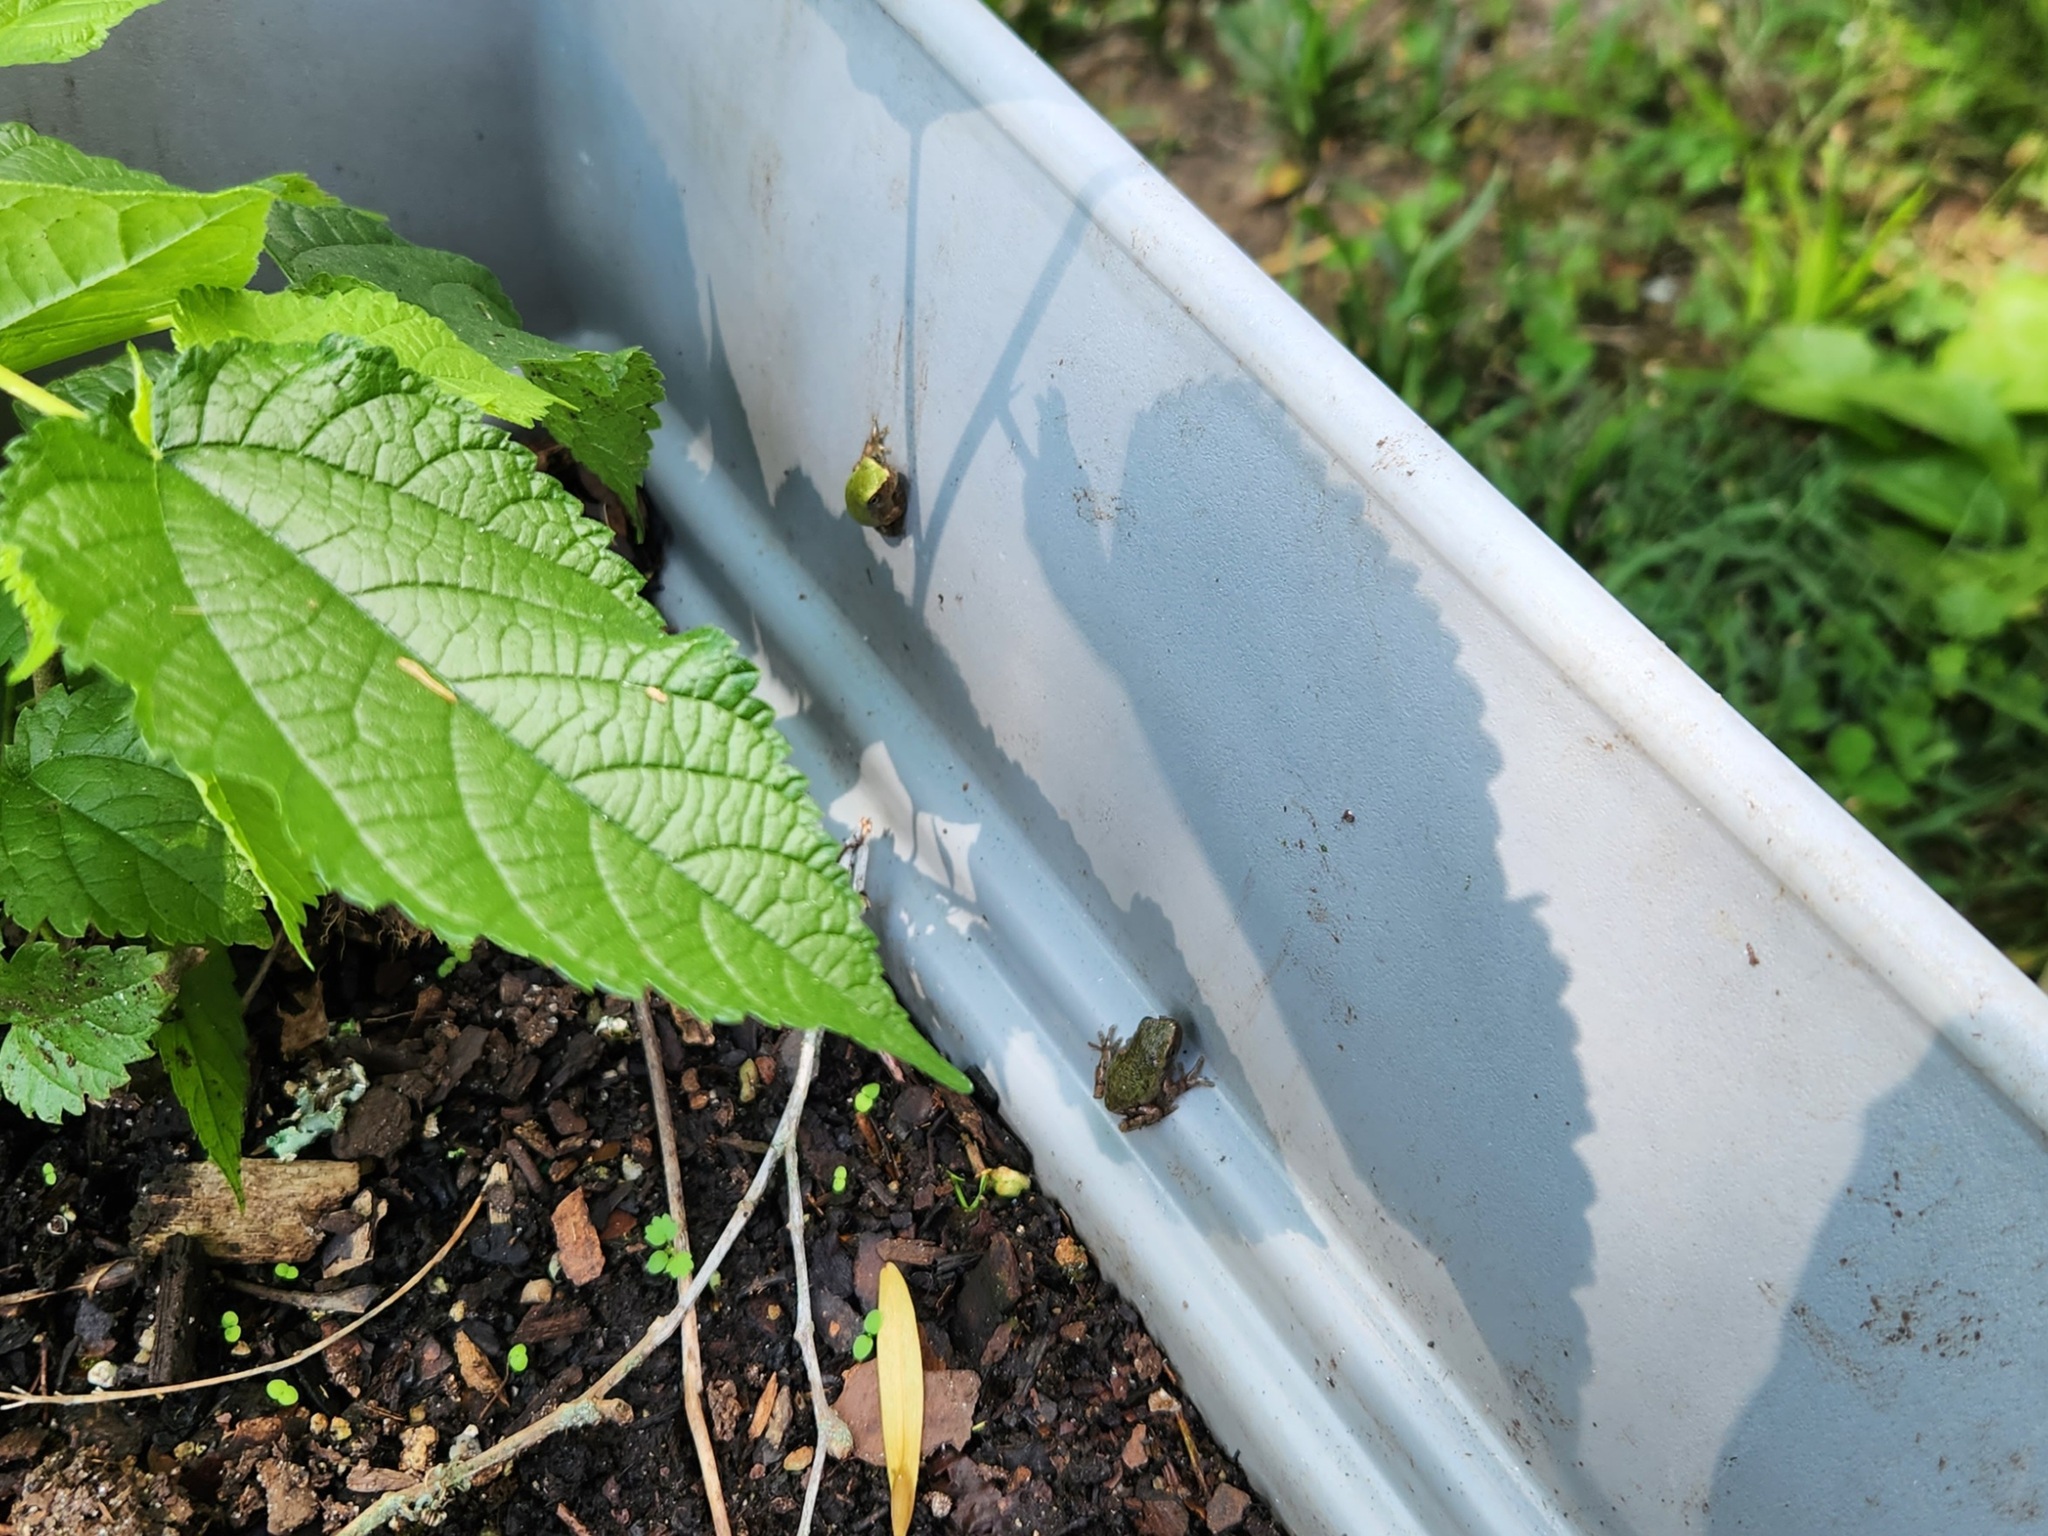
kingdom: Animalia
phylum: Chordata
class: Amphibia
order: Anura
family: Hylidae
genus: Dryophytes
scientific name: Dryophytes chrysoscelis
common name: Cope's gray treefrog
